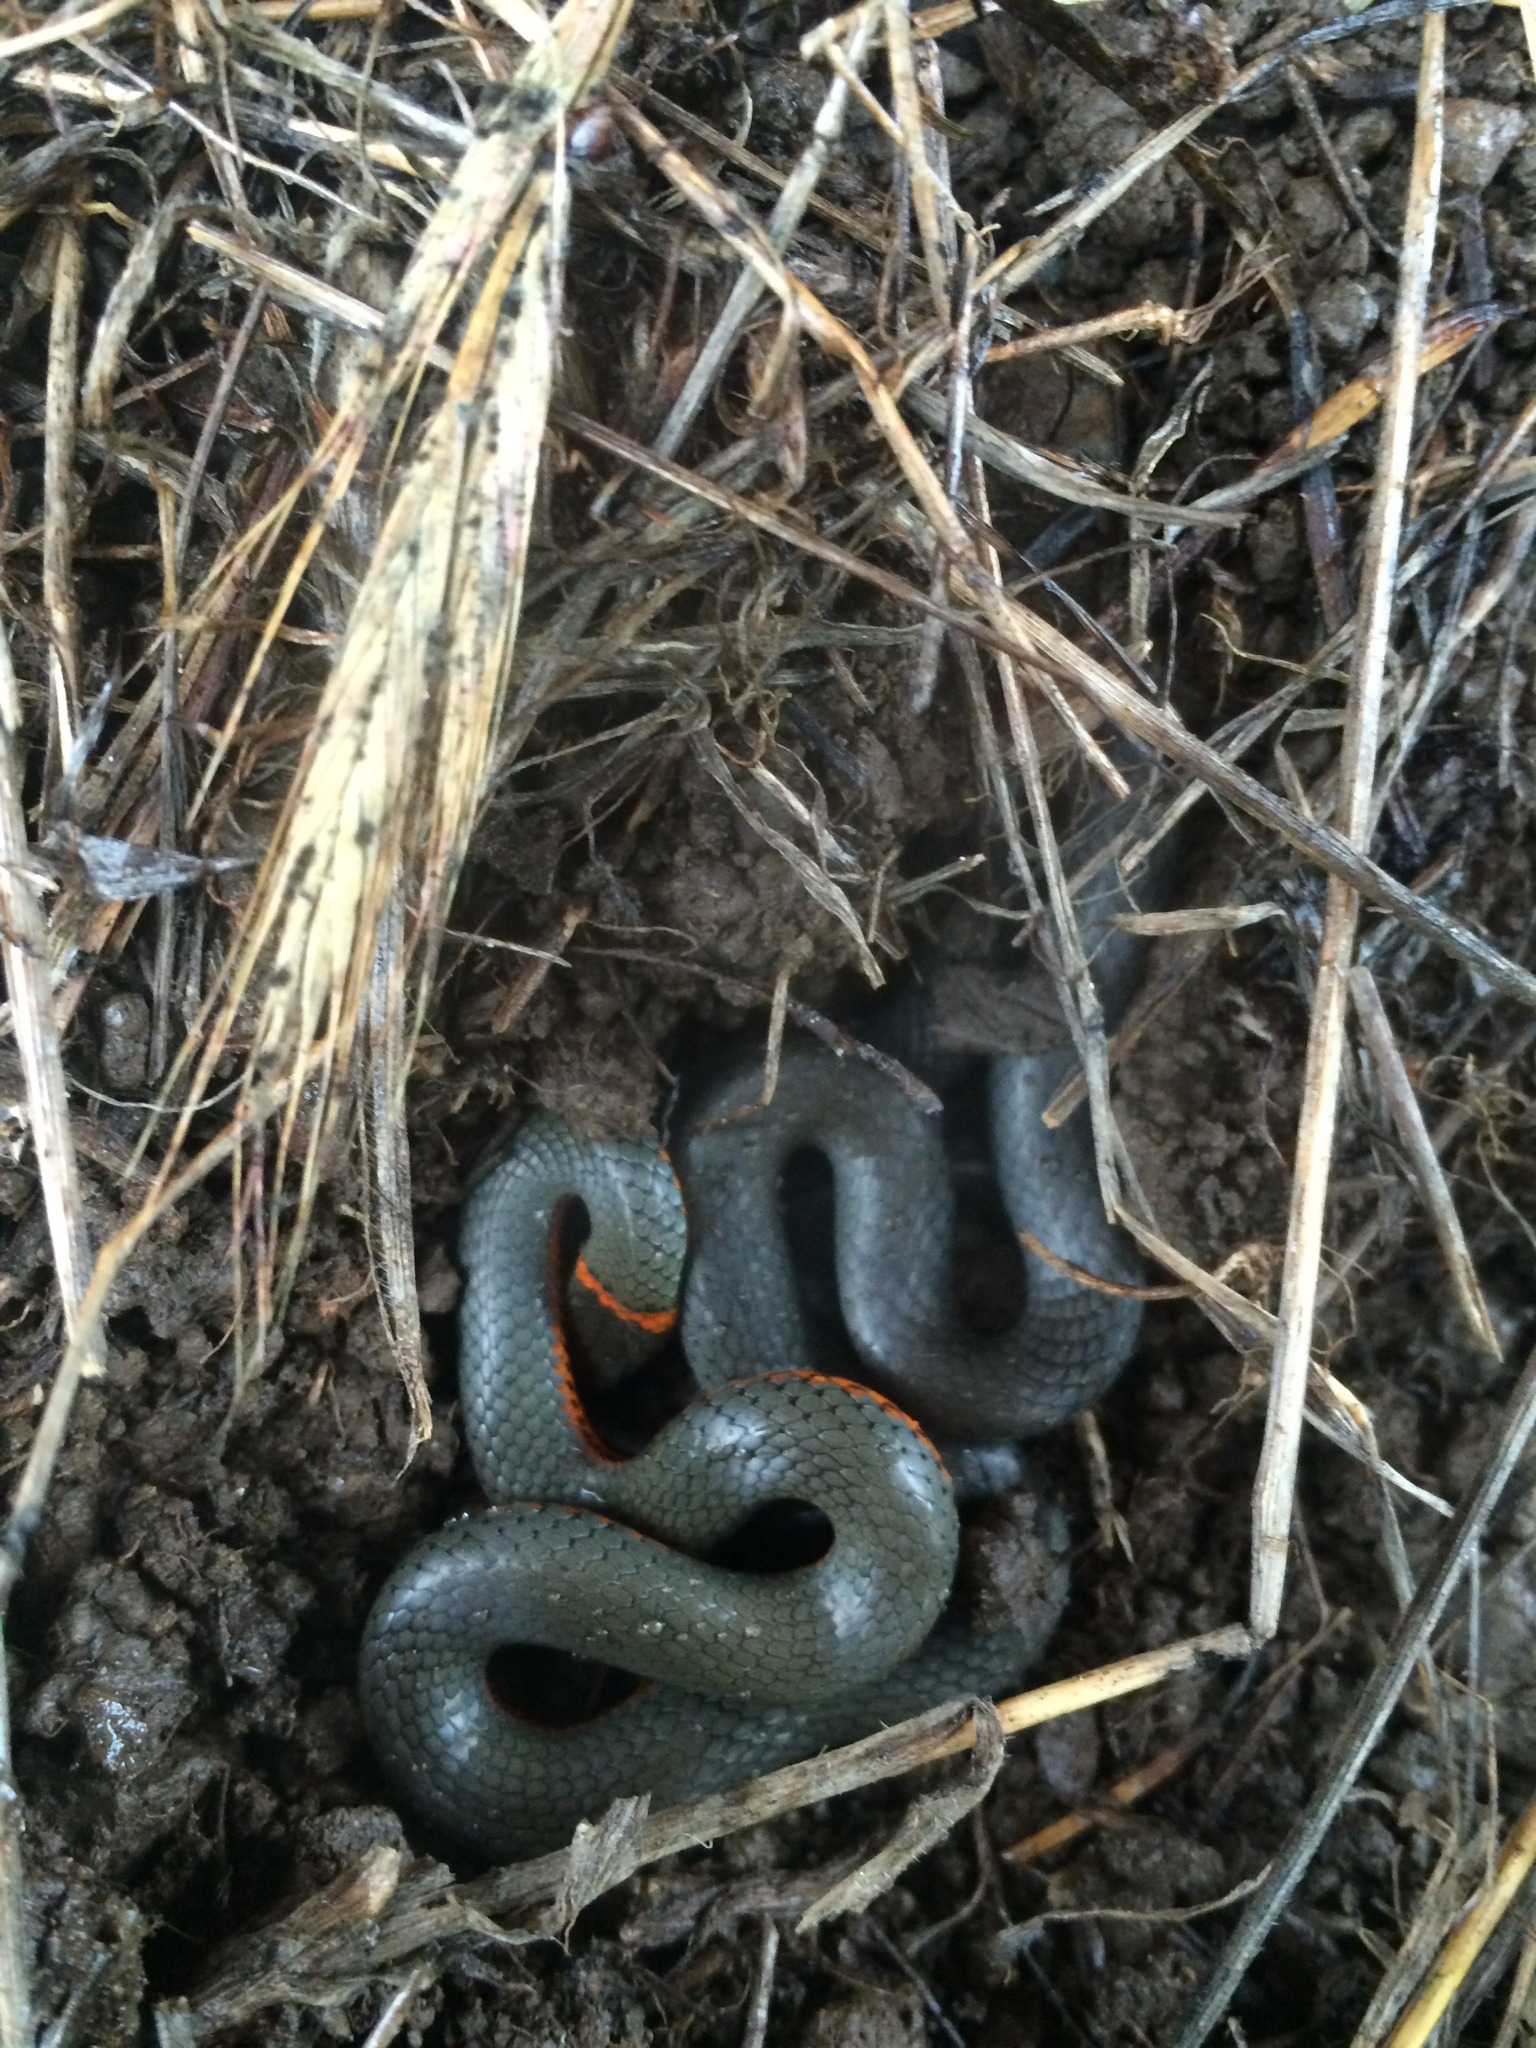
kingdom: Animalia
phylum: Chordata
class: Squamata
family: Colubridae
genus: Diadophis
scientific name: Diadophis punctatus
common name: Ringneck snake
